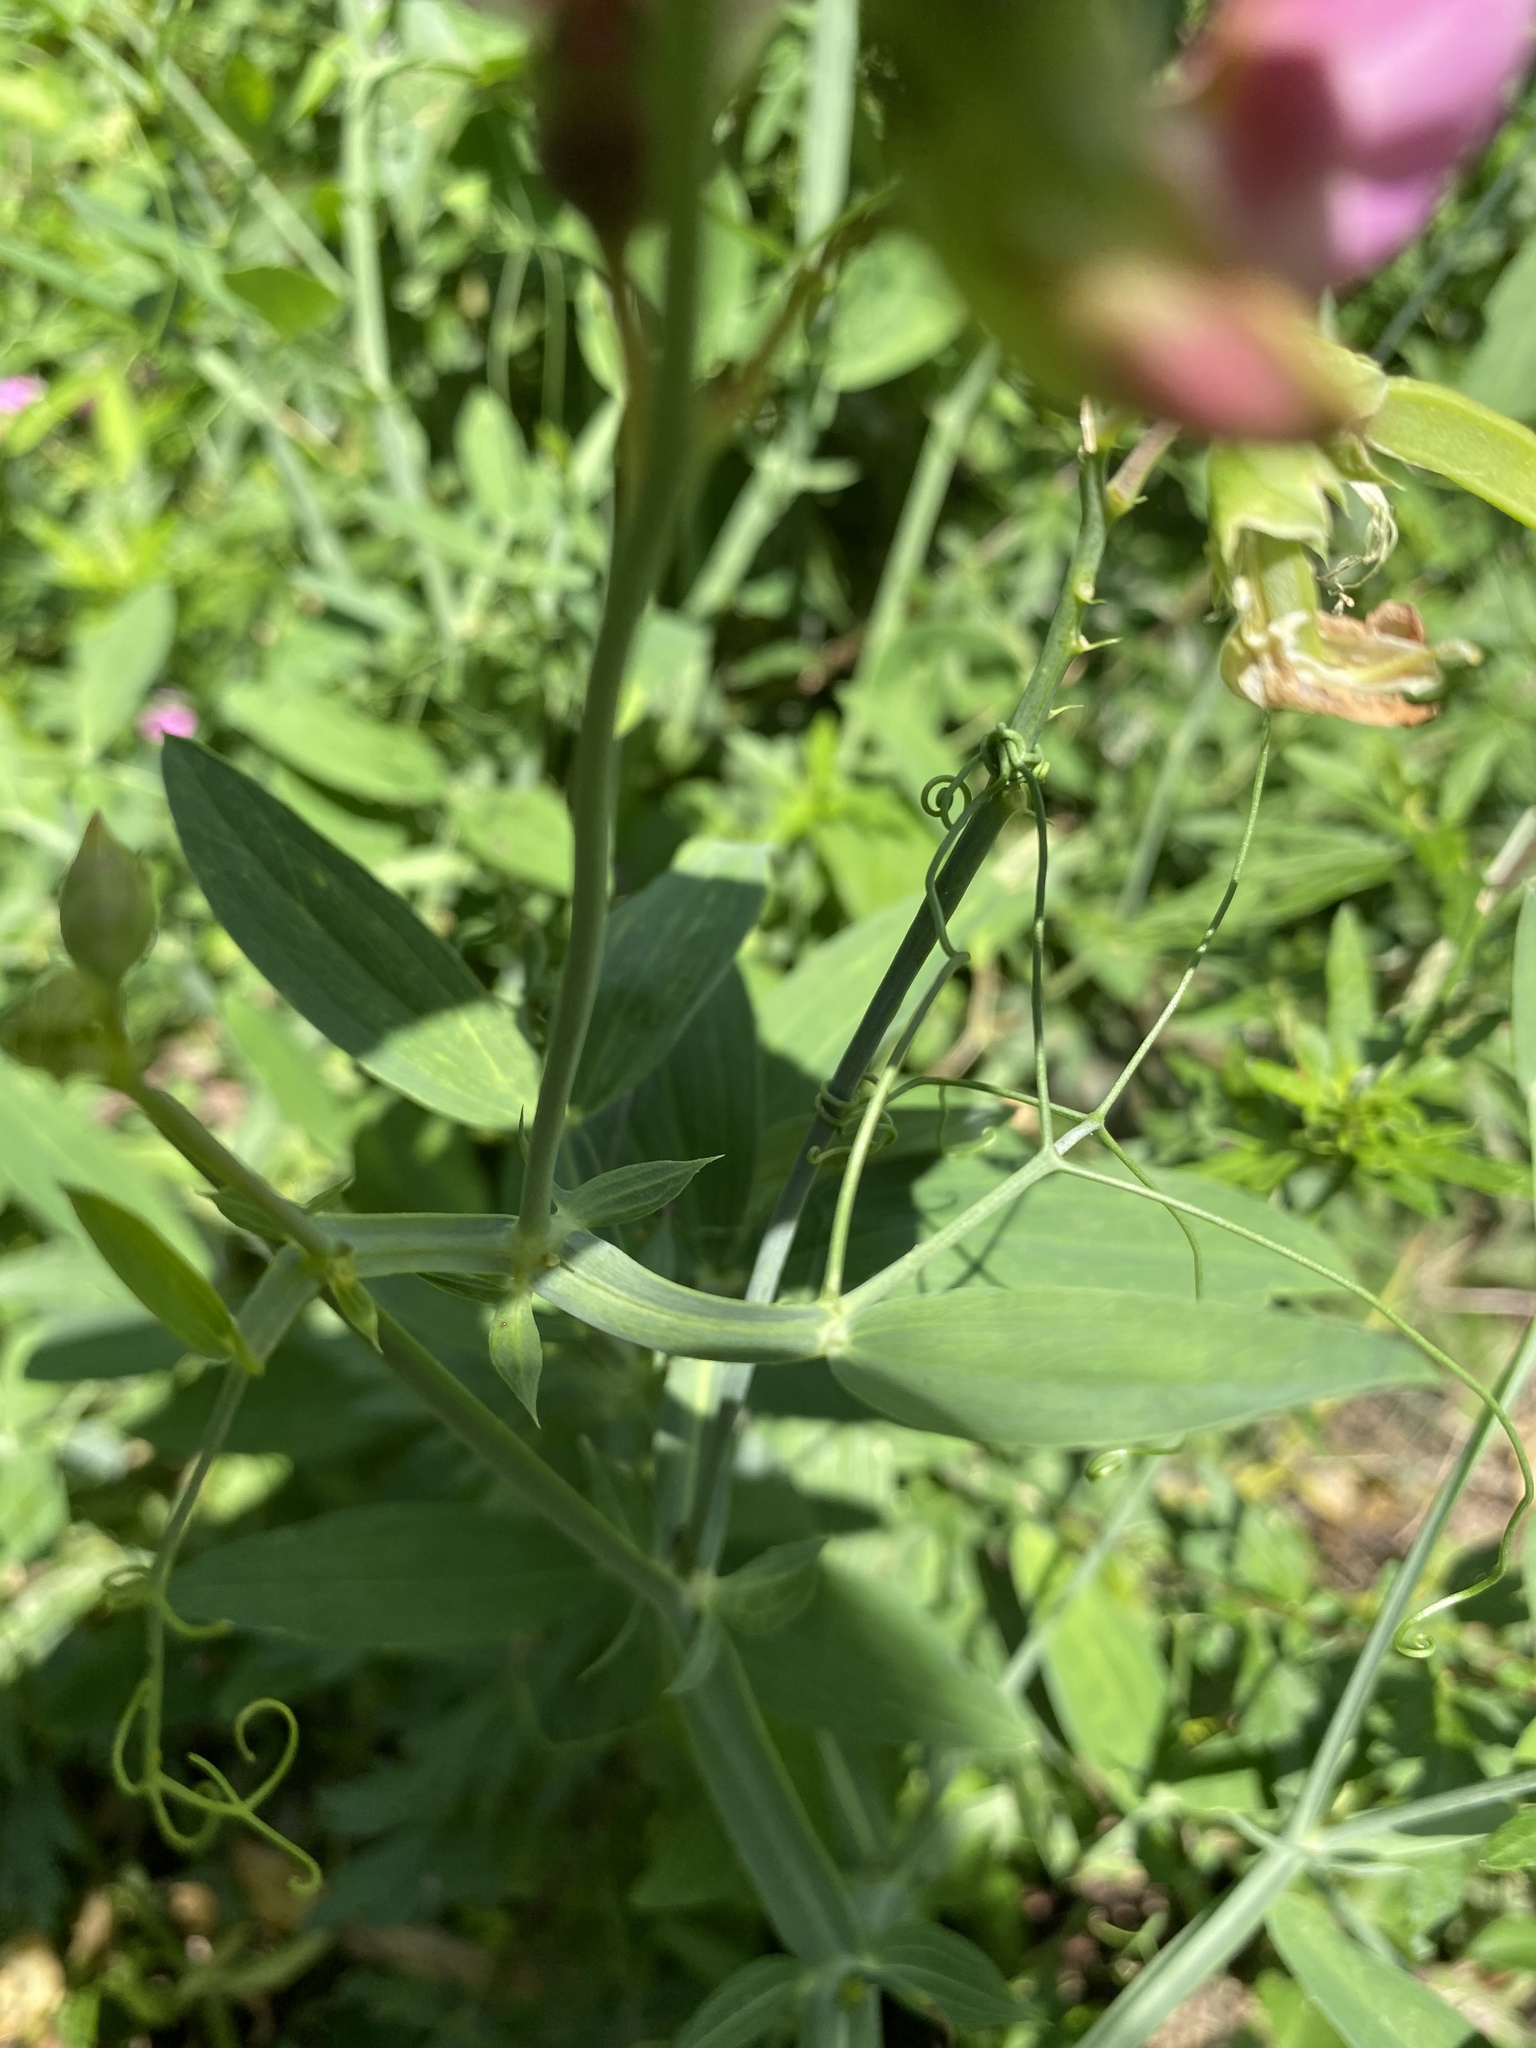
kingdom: Plantae
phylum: Tracheophyta
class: Magnoliopsida
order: Fabales
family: Fabaceae
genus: Lathyrus
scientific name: Lathyrus latifolius
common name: Perennial pea
